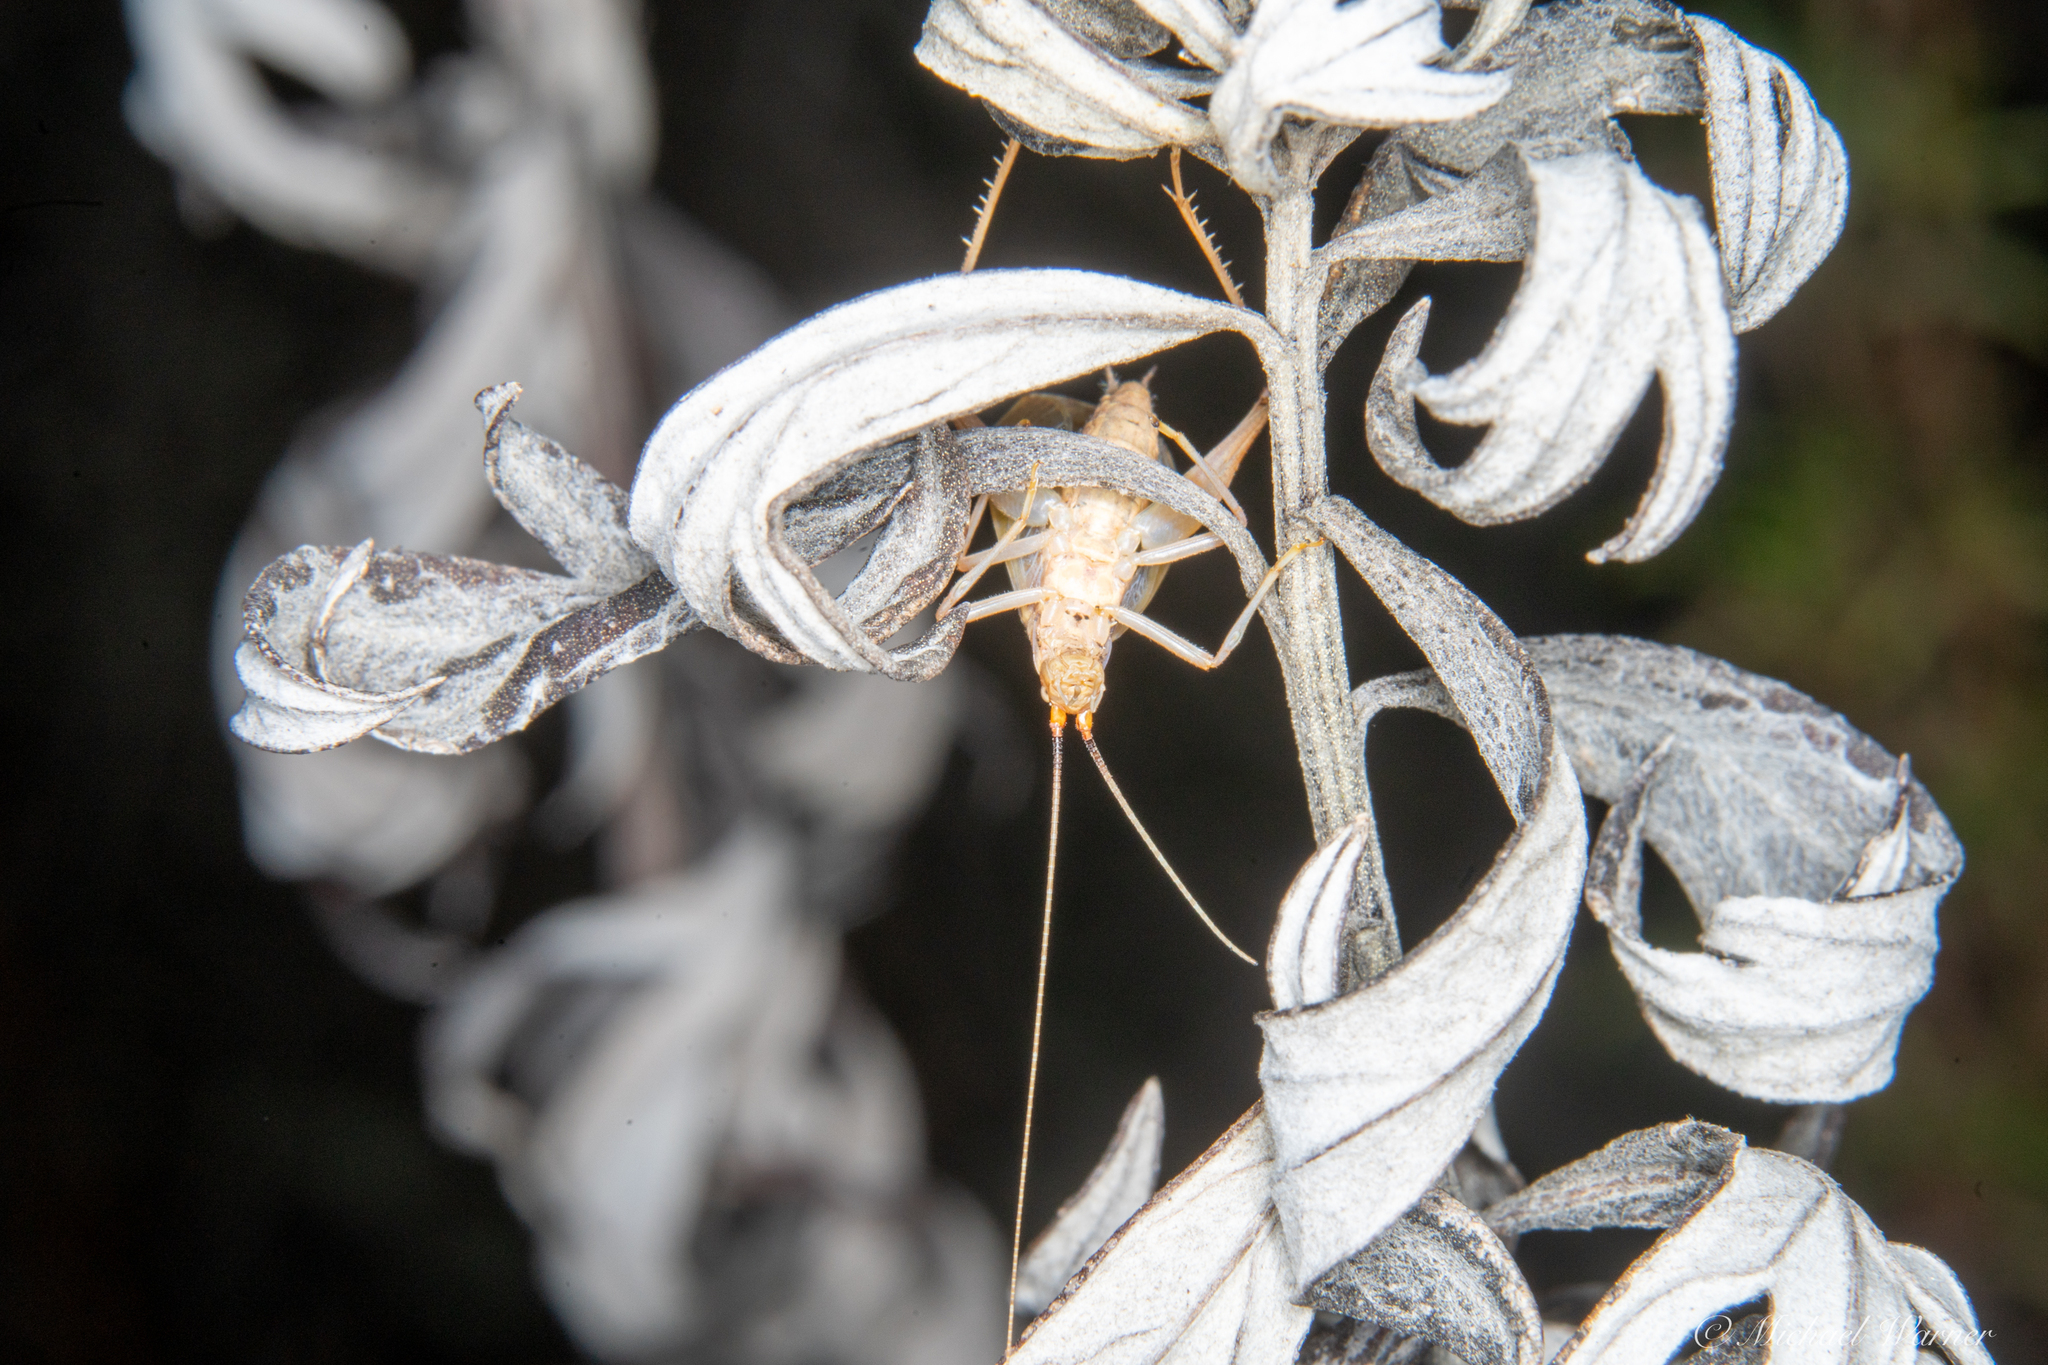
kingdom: Animalia
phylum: Arthropoda
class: Insecta
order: Orthoptera
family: Gryllidae
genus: Oecanthus
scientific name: Oecanthus californicus
